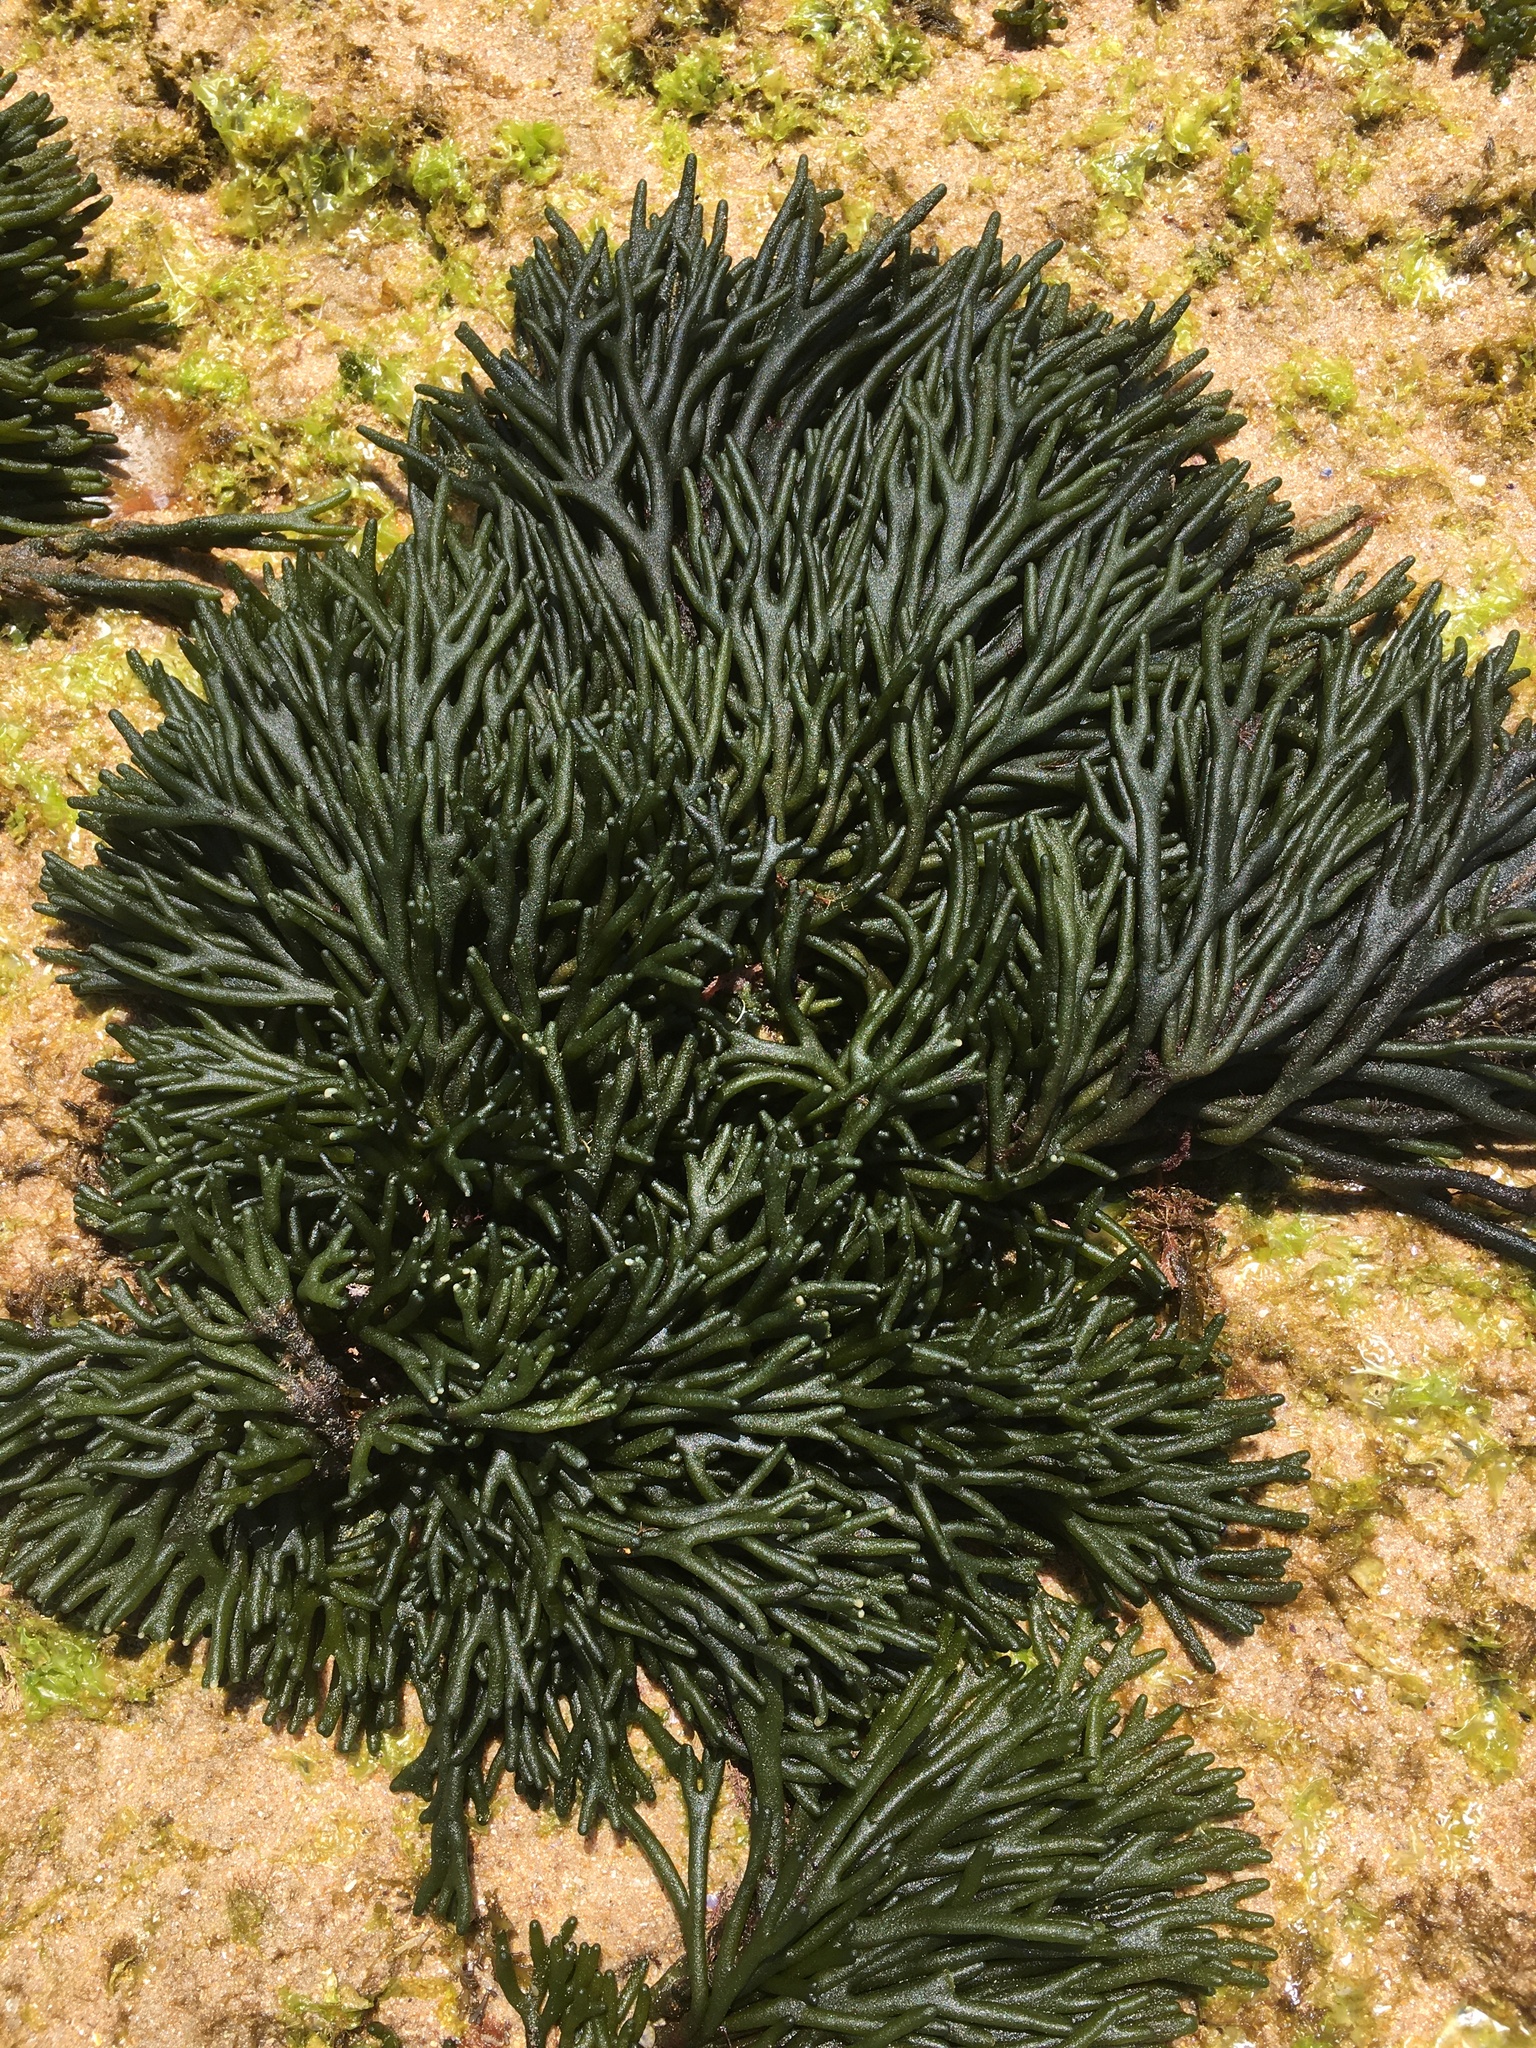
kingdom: Plantae
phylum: Chlorophyta
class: Ulvophyceae
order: Bryopsidales
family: Codiaceae
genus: Codium
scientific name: Codium fragile
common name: Dead man's fingers
